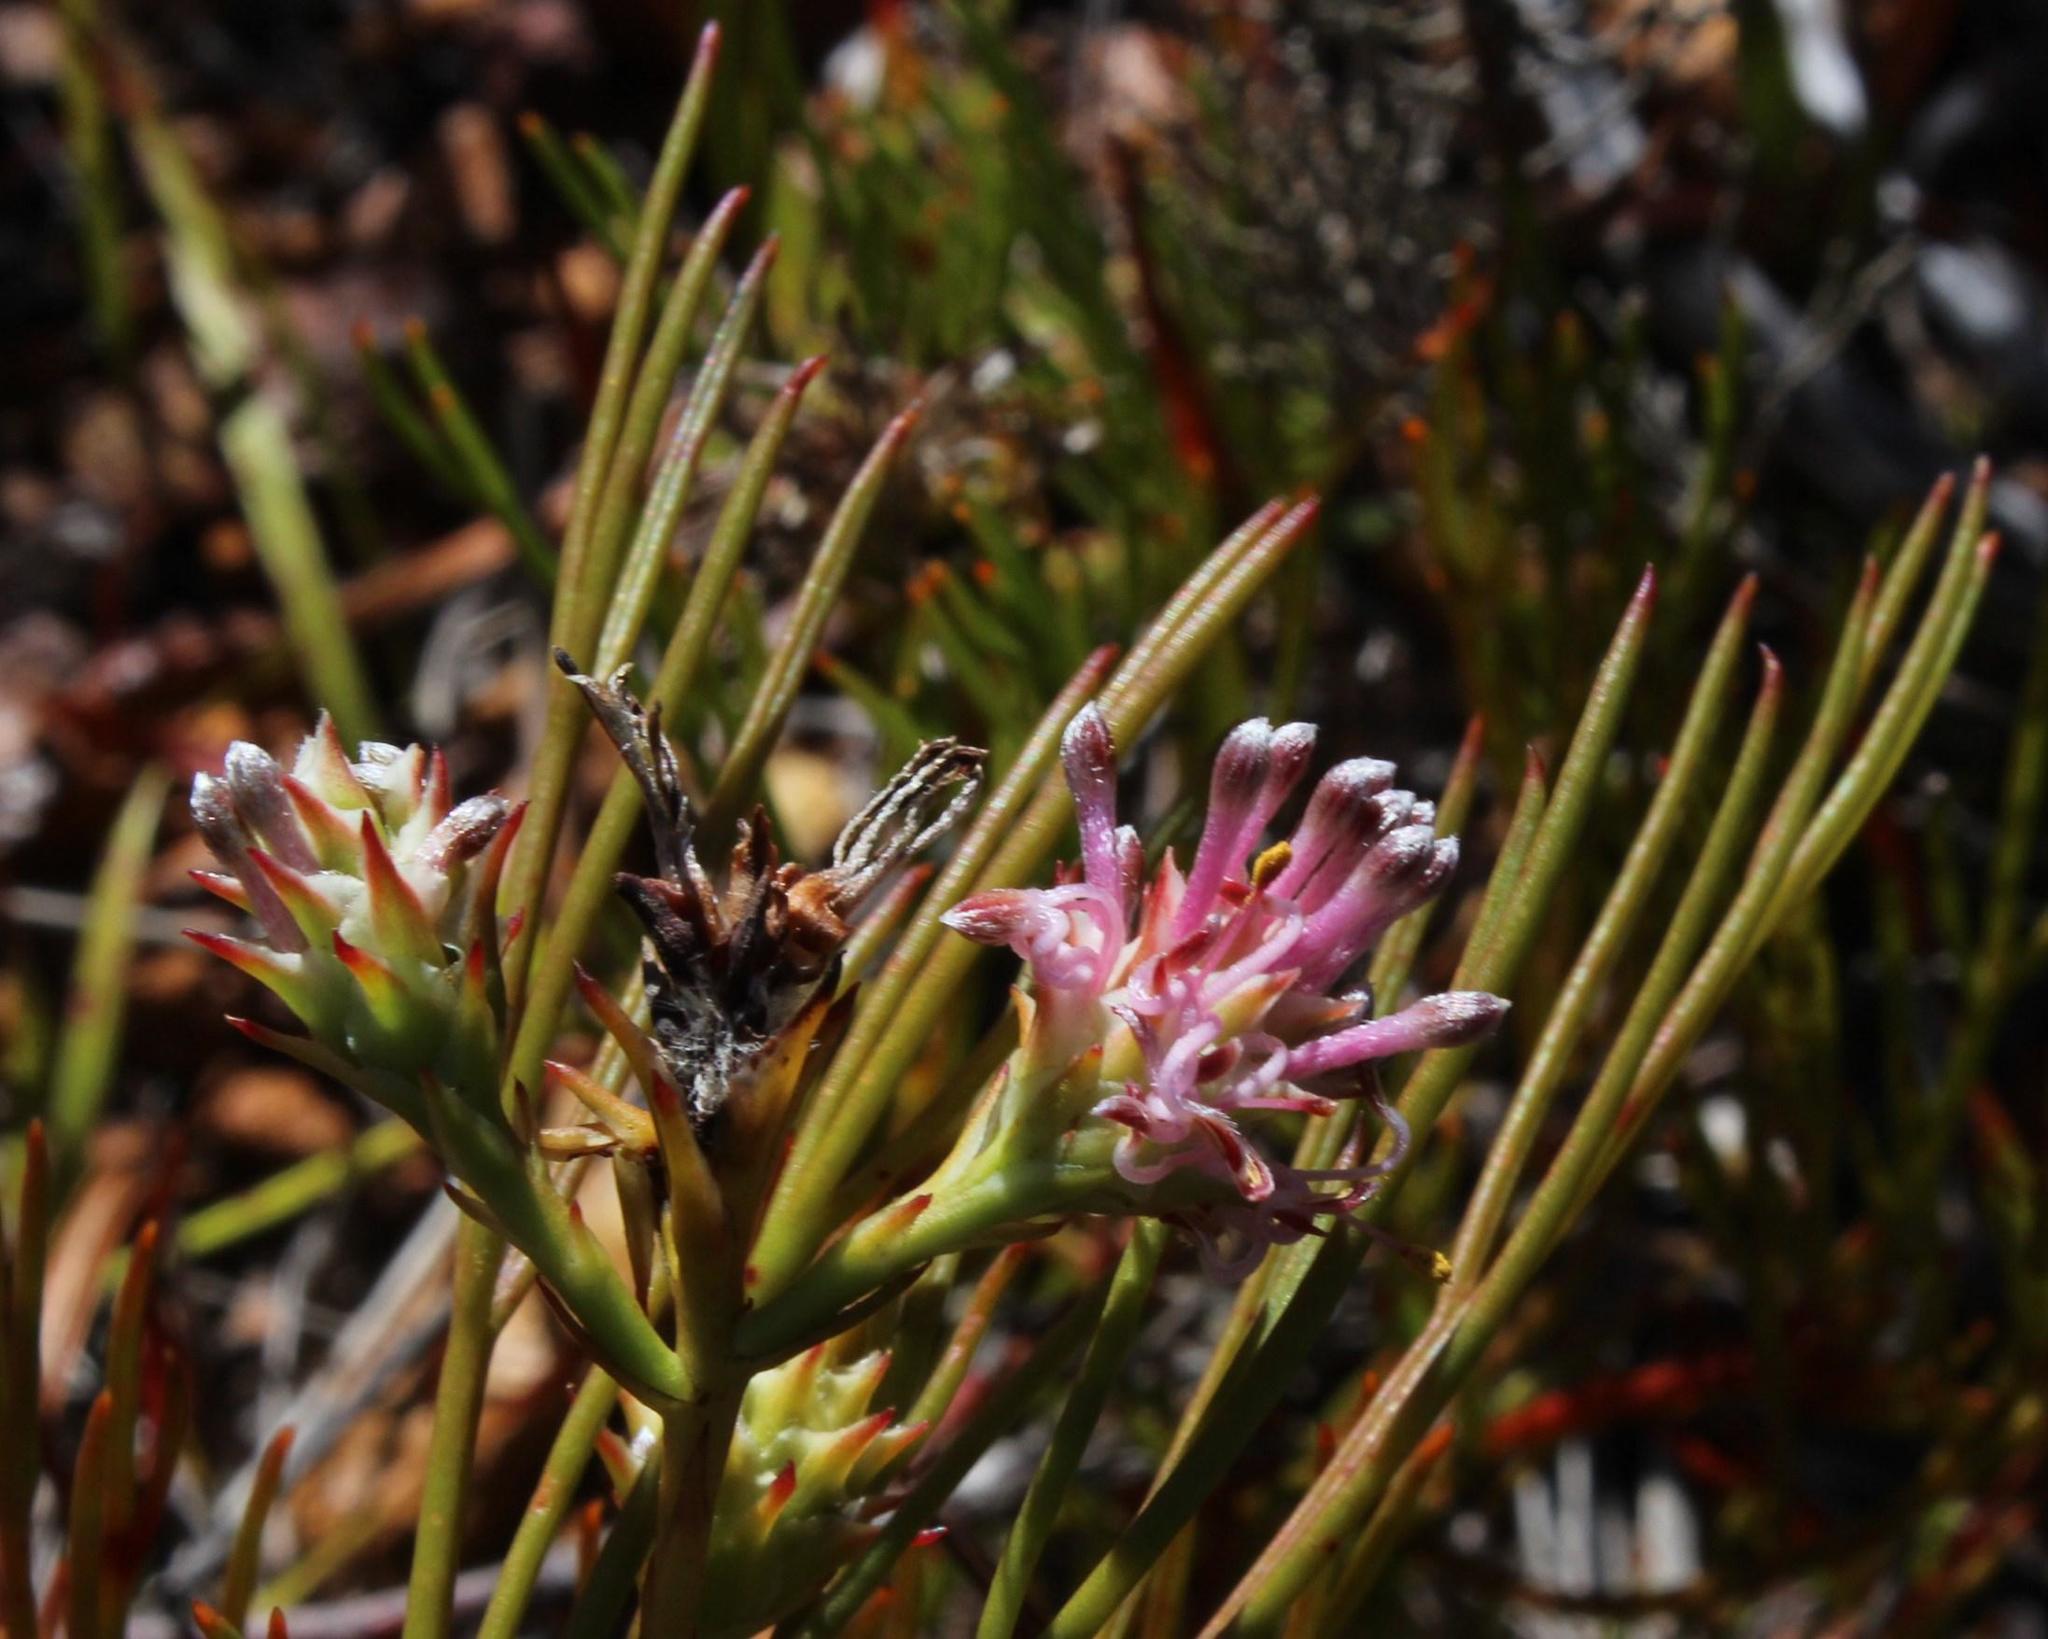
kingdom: Plantae
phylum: Tracheophyta
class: Magnoliopsida
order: Proteales
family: Proteaceae
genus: Serruria
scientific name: Serruria
